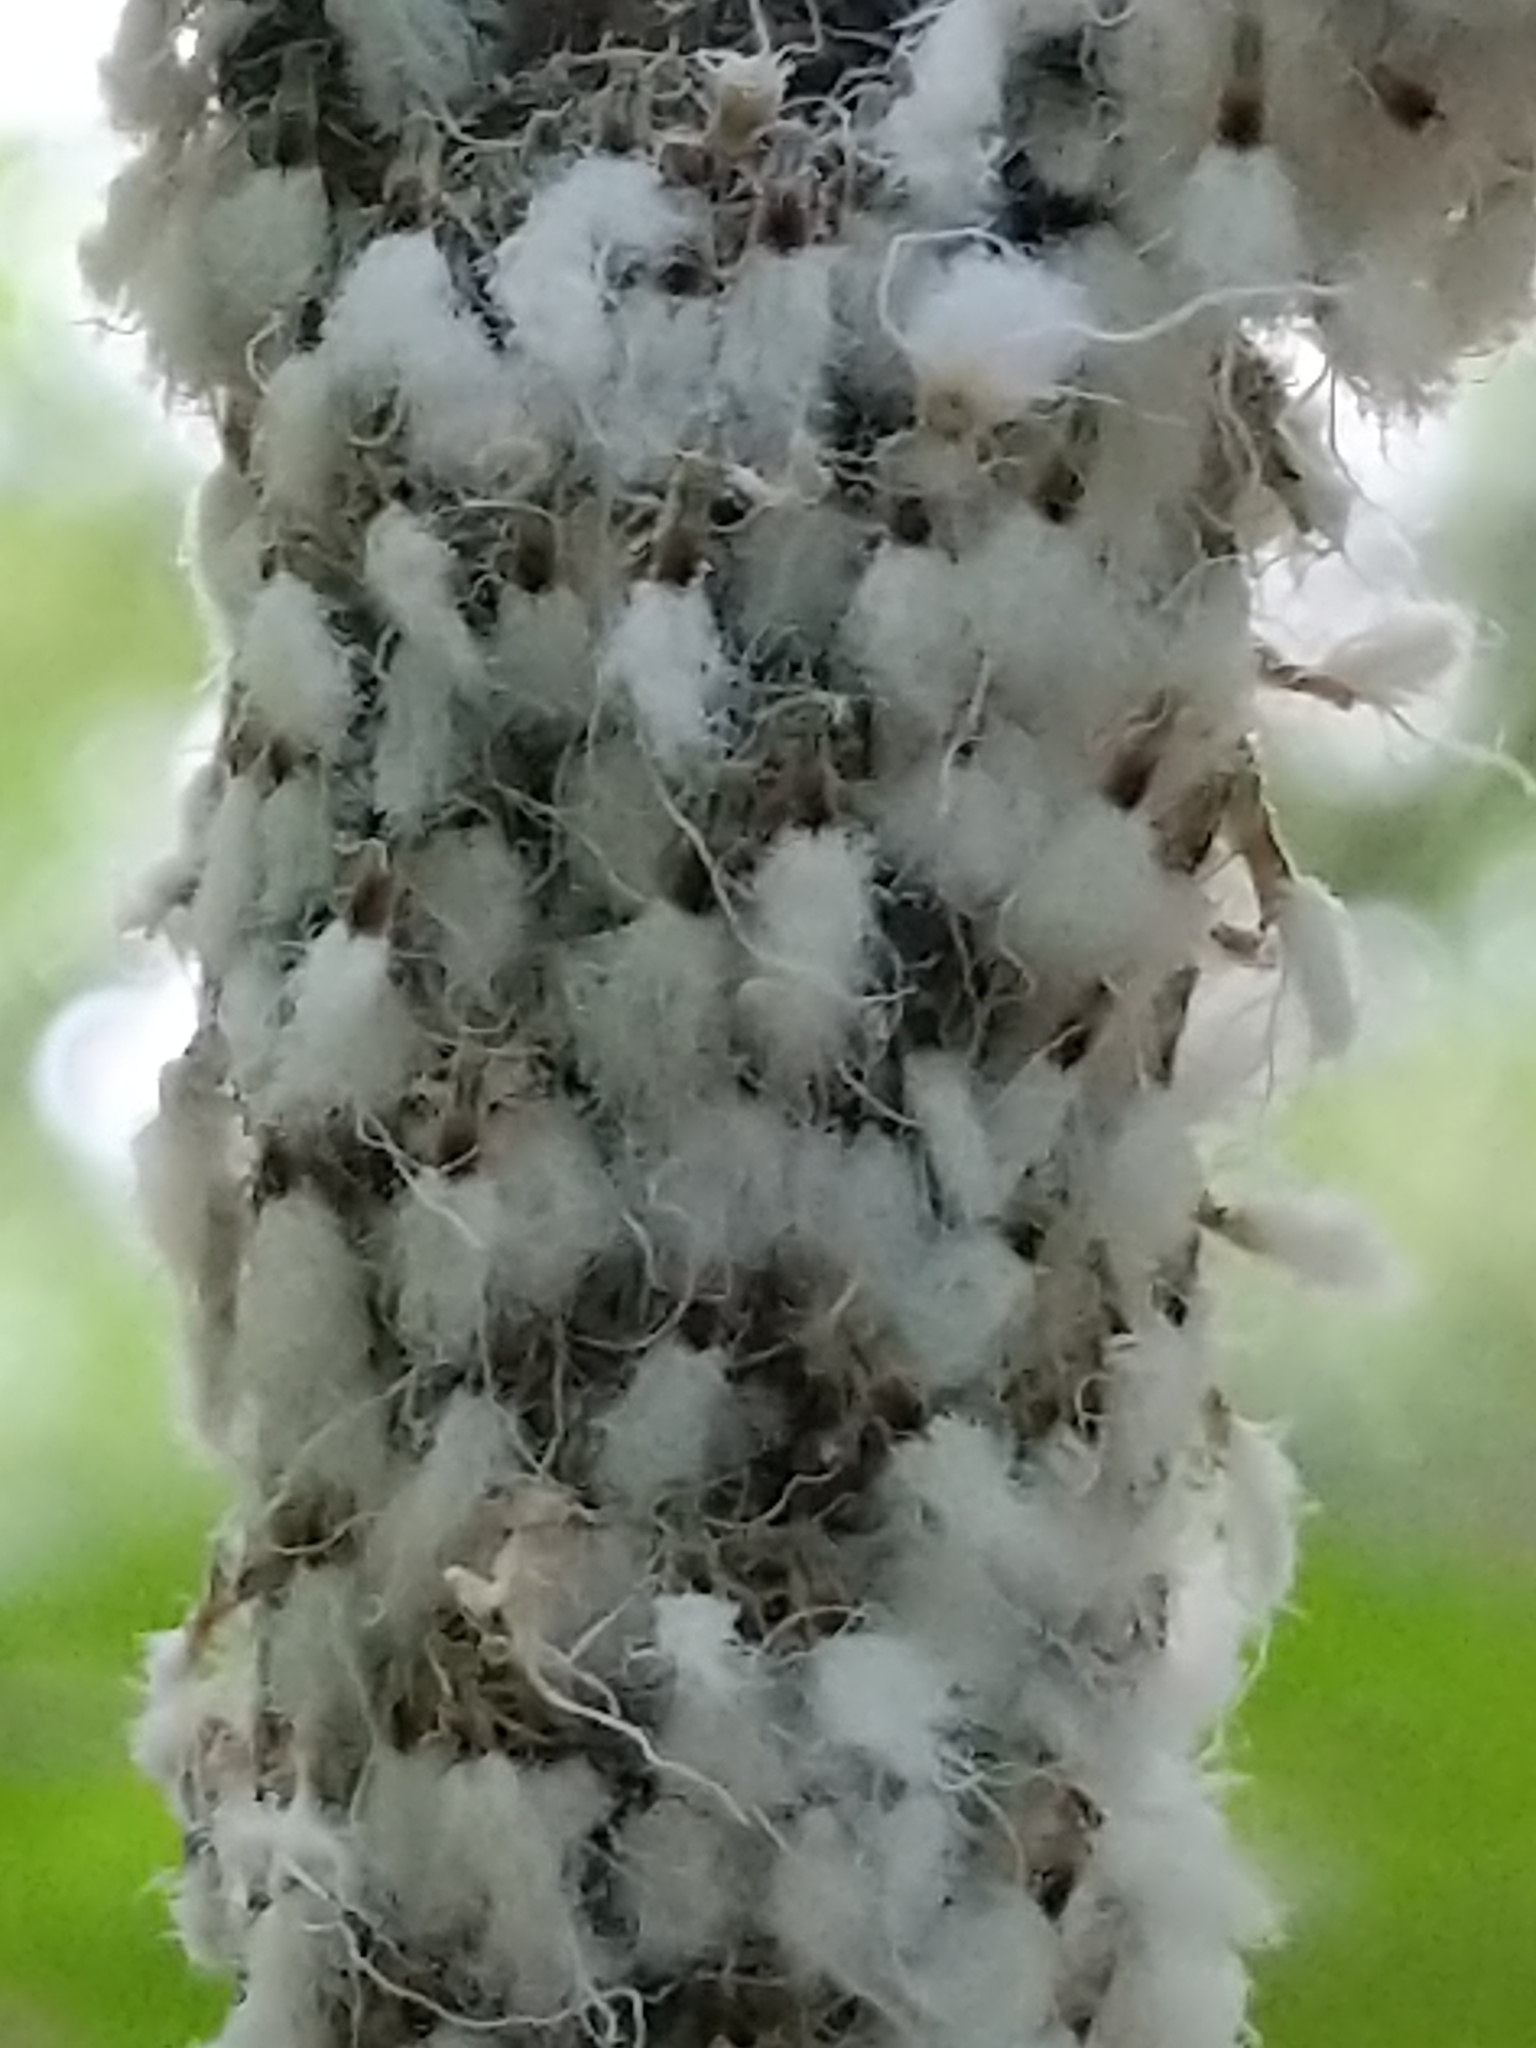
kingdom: Animalia
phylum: Arthropoda
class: Insecta
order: Hemiptera
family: Aphididae
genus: Grylloprociphilus
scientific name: Grylloprociphilus imbricator
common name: Beech blight aphid
